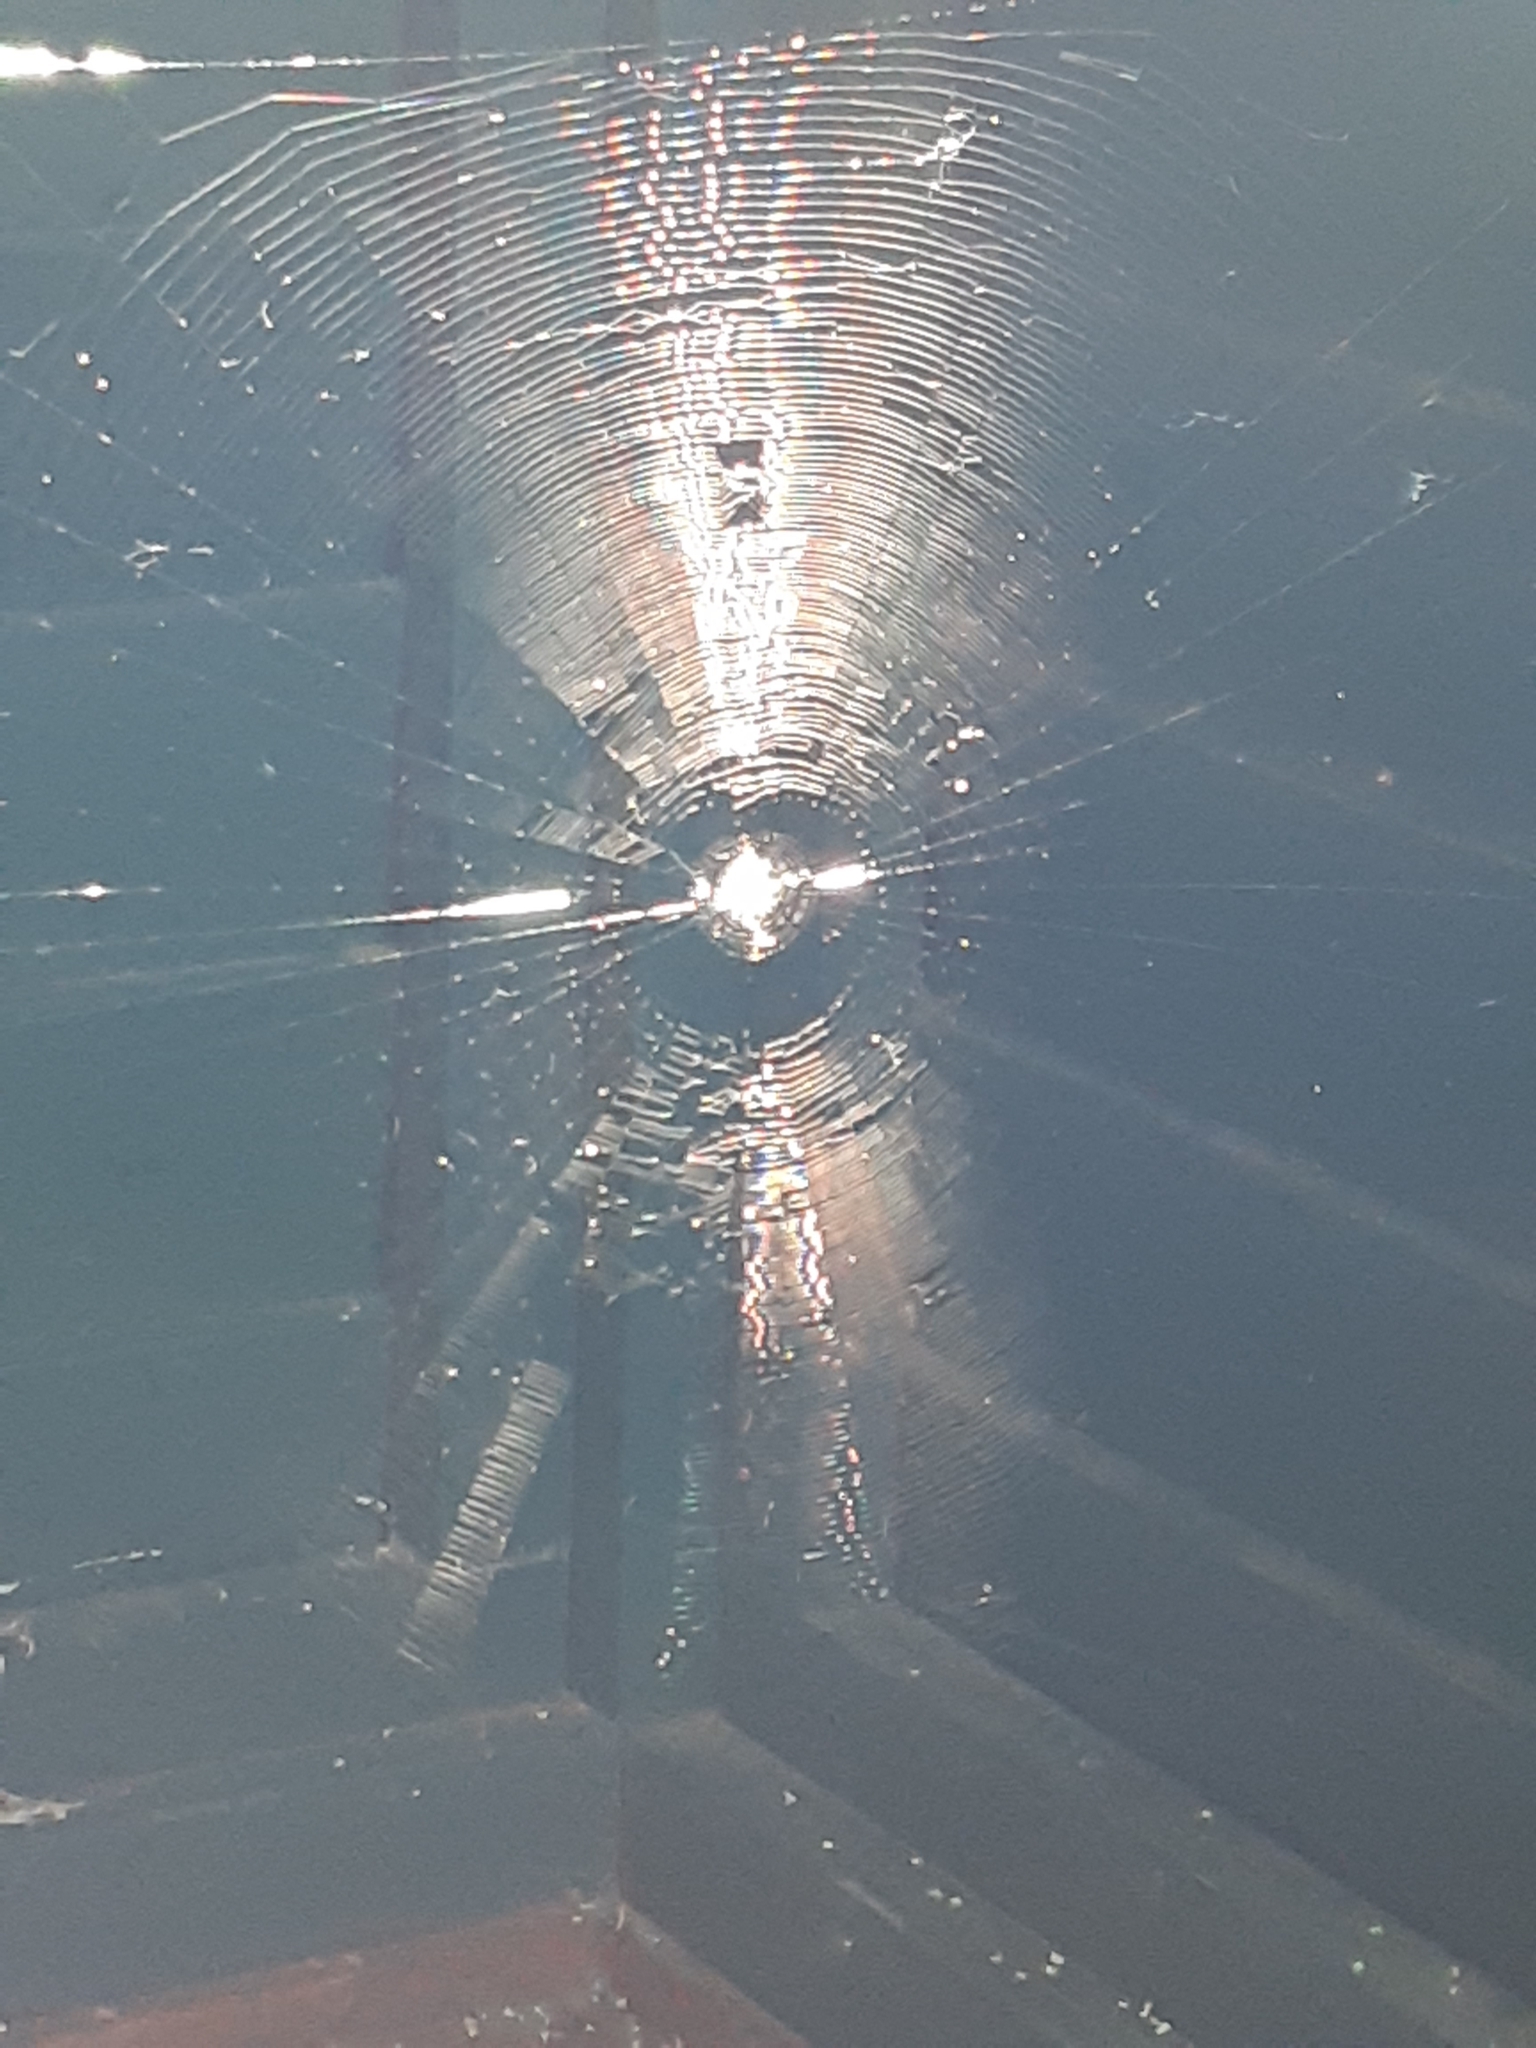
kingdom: Animalia
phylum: Arthropoda
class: Arachnida
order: Araneae
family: Araneidae
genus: Zilla
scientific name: Zilla diodia
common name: Zilla diodia
